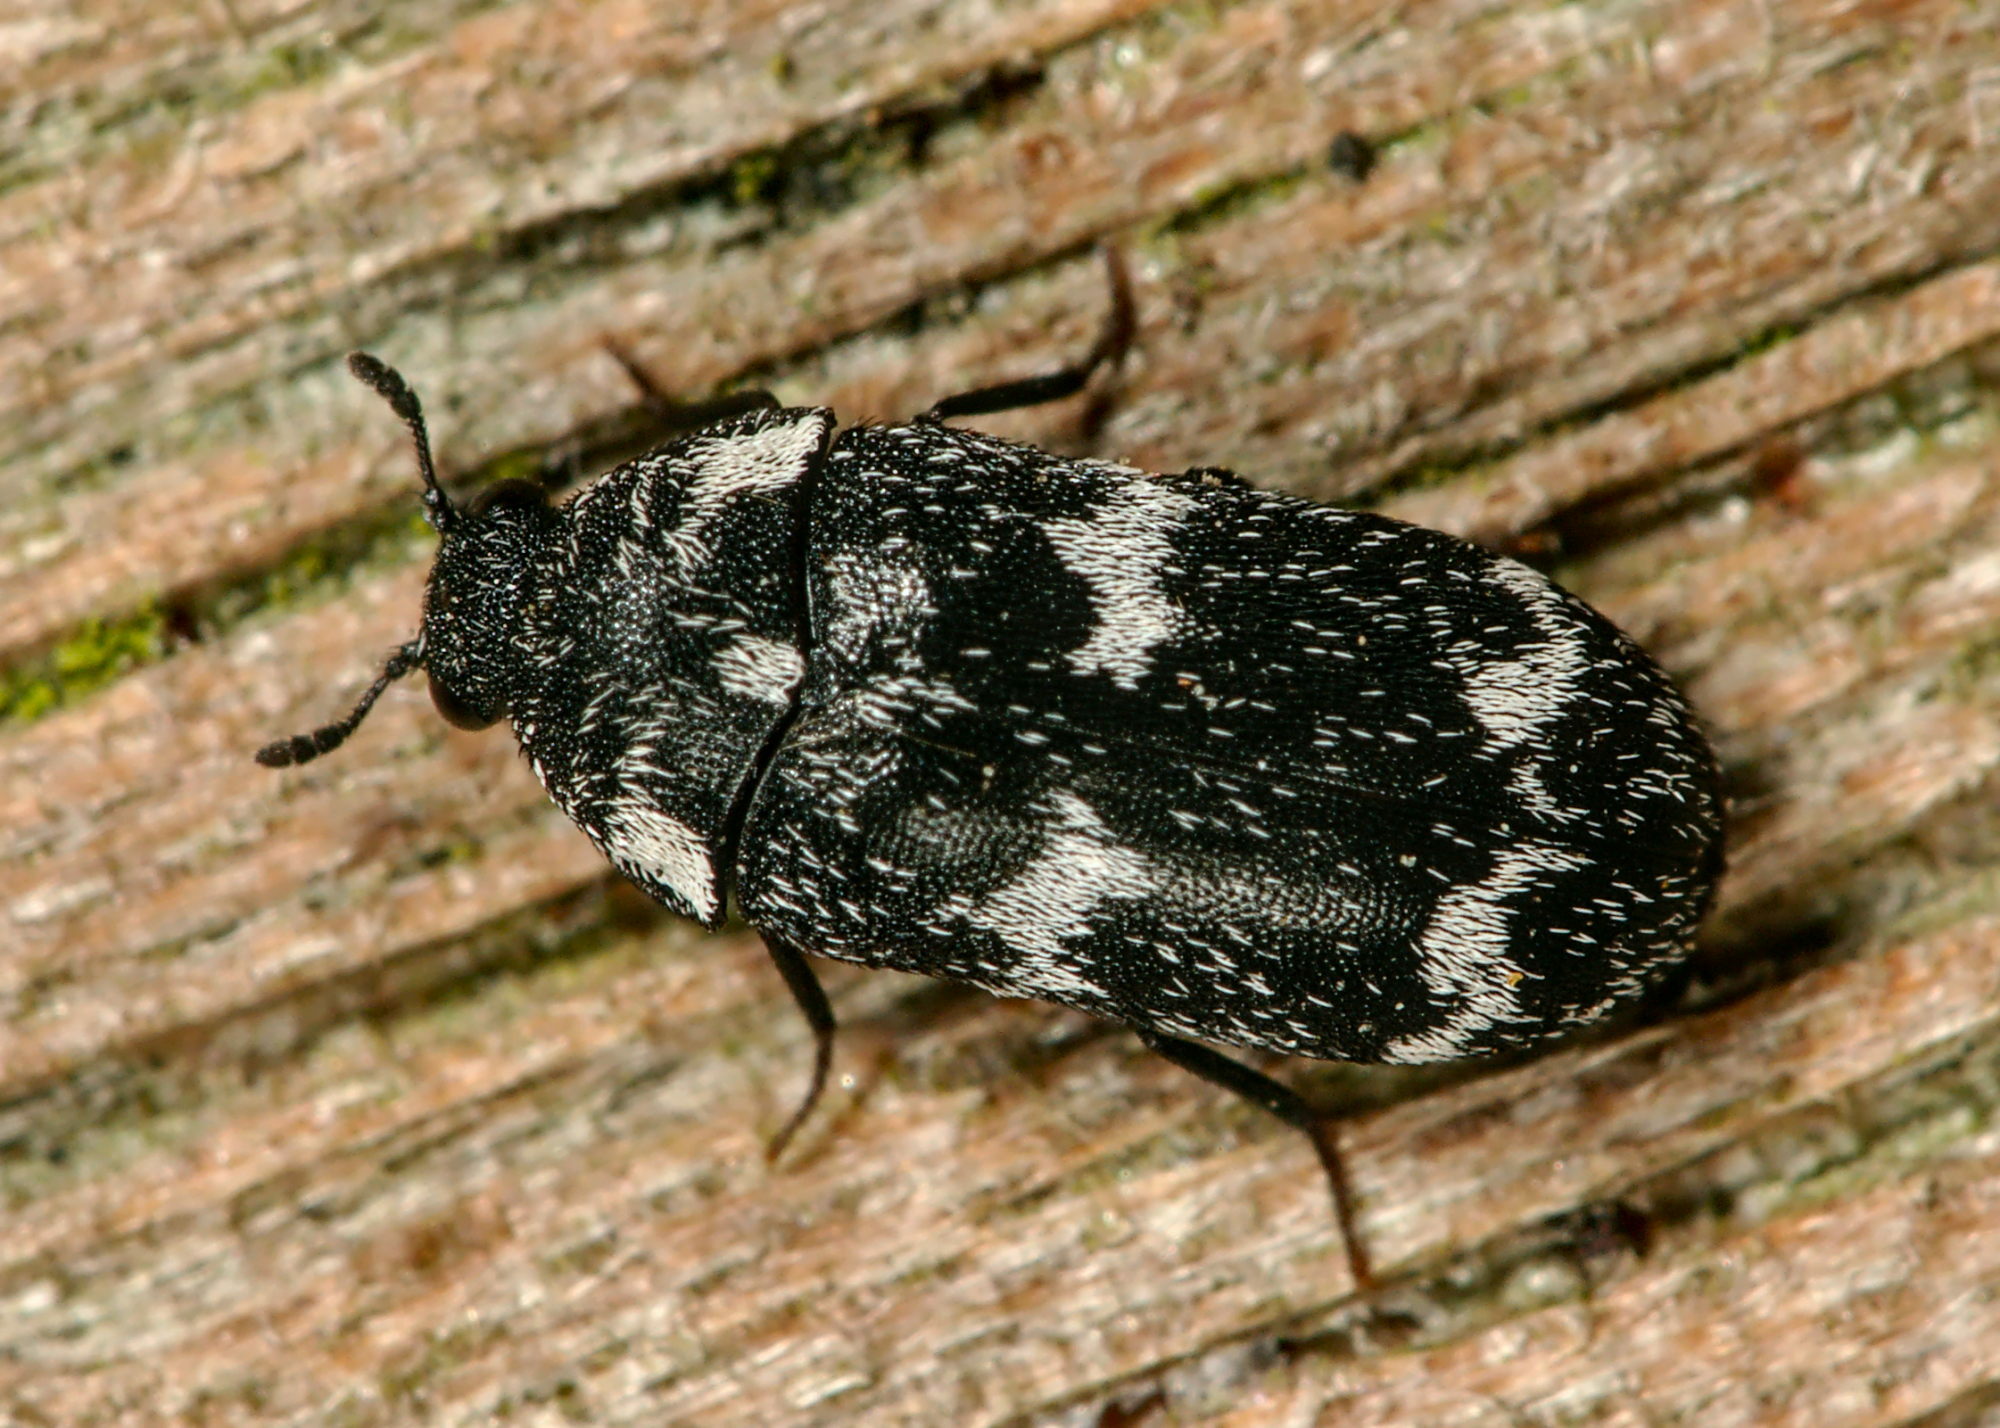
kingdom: Animalia
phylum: Arthropoda
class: Insecta
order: Coleoptera
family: Dermestidae
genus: Megatoma
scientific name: Megatoma undata
